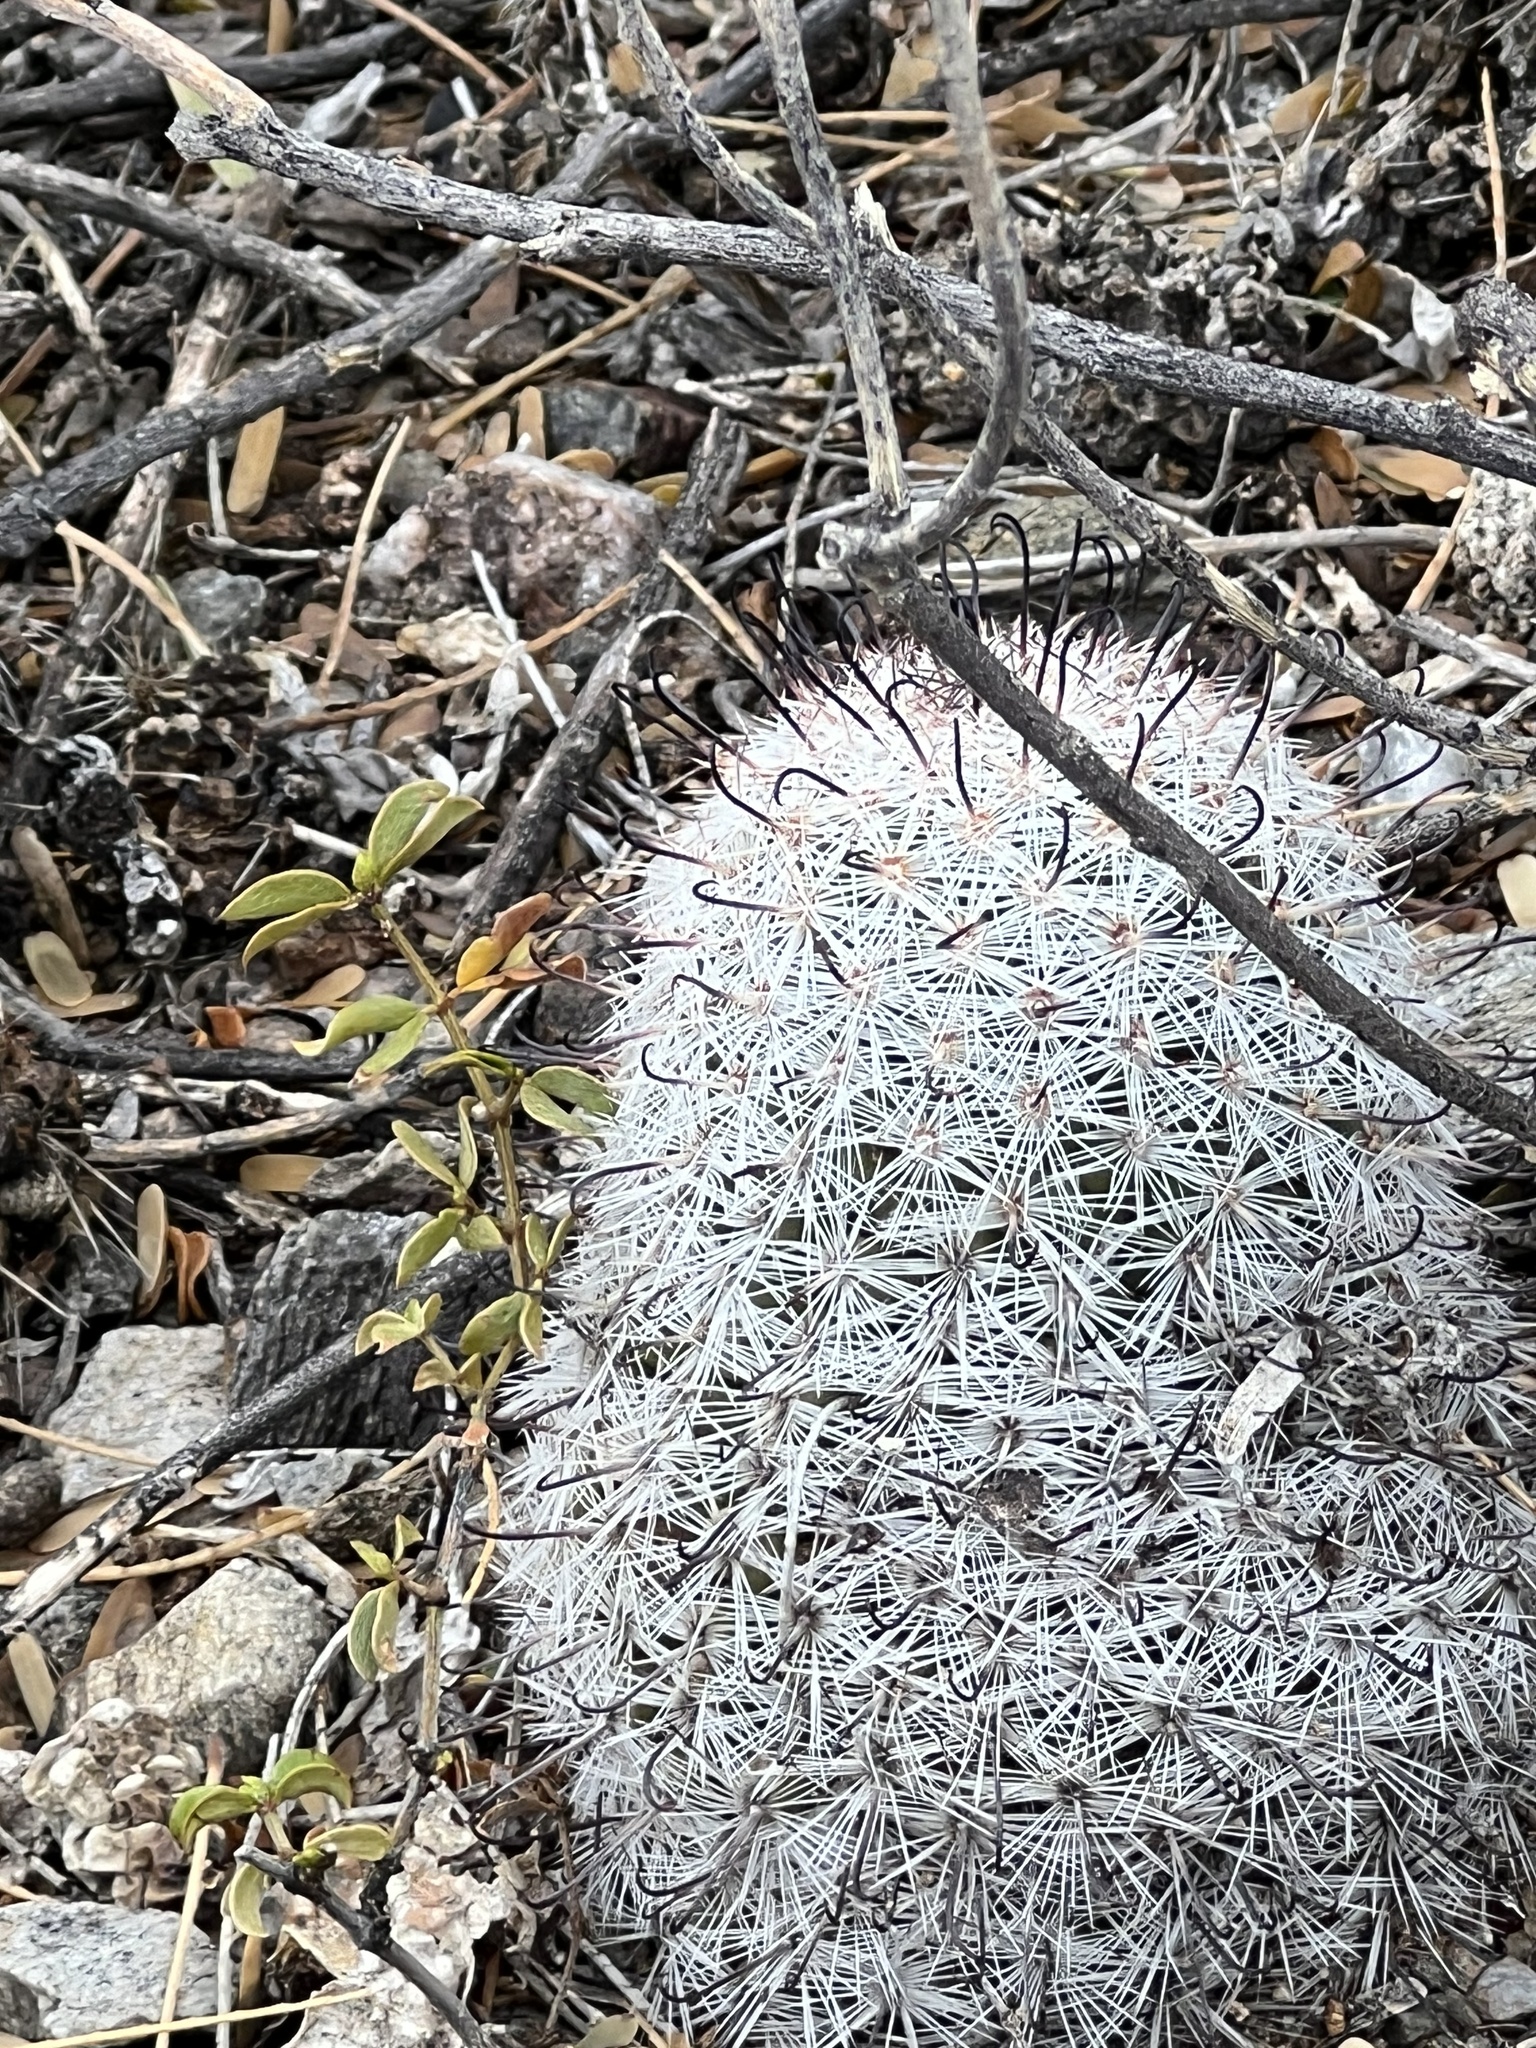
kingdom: Plantae
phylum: Tracheophyta
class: Magnoliopsida
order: Caryophyllales
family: Cactaceae
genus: Cochemiea
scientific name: Cochemiea grahamii
